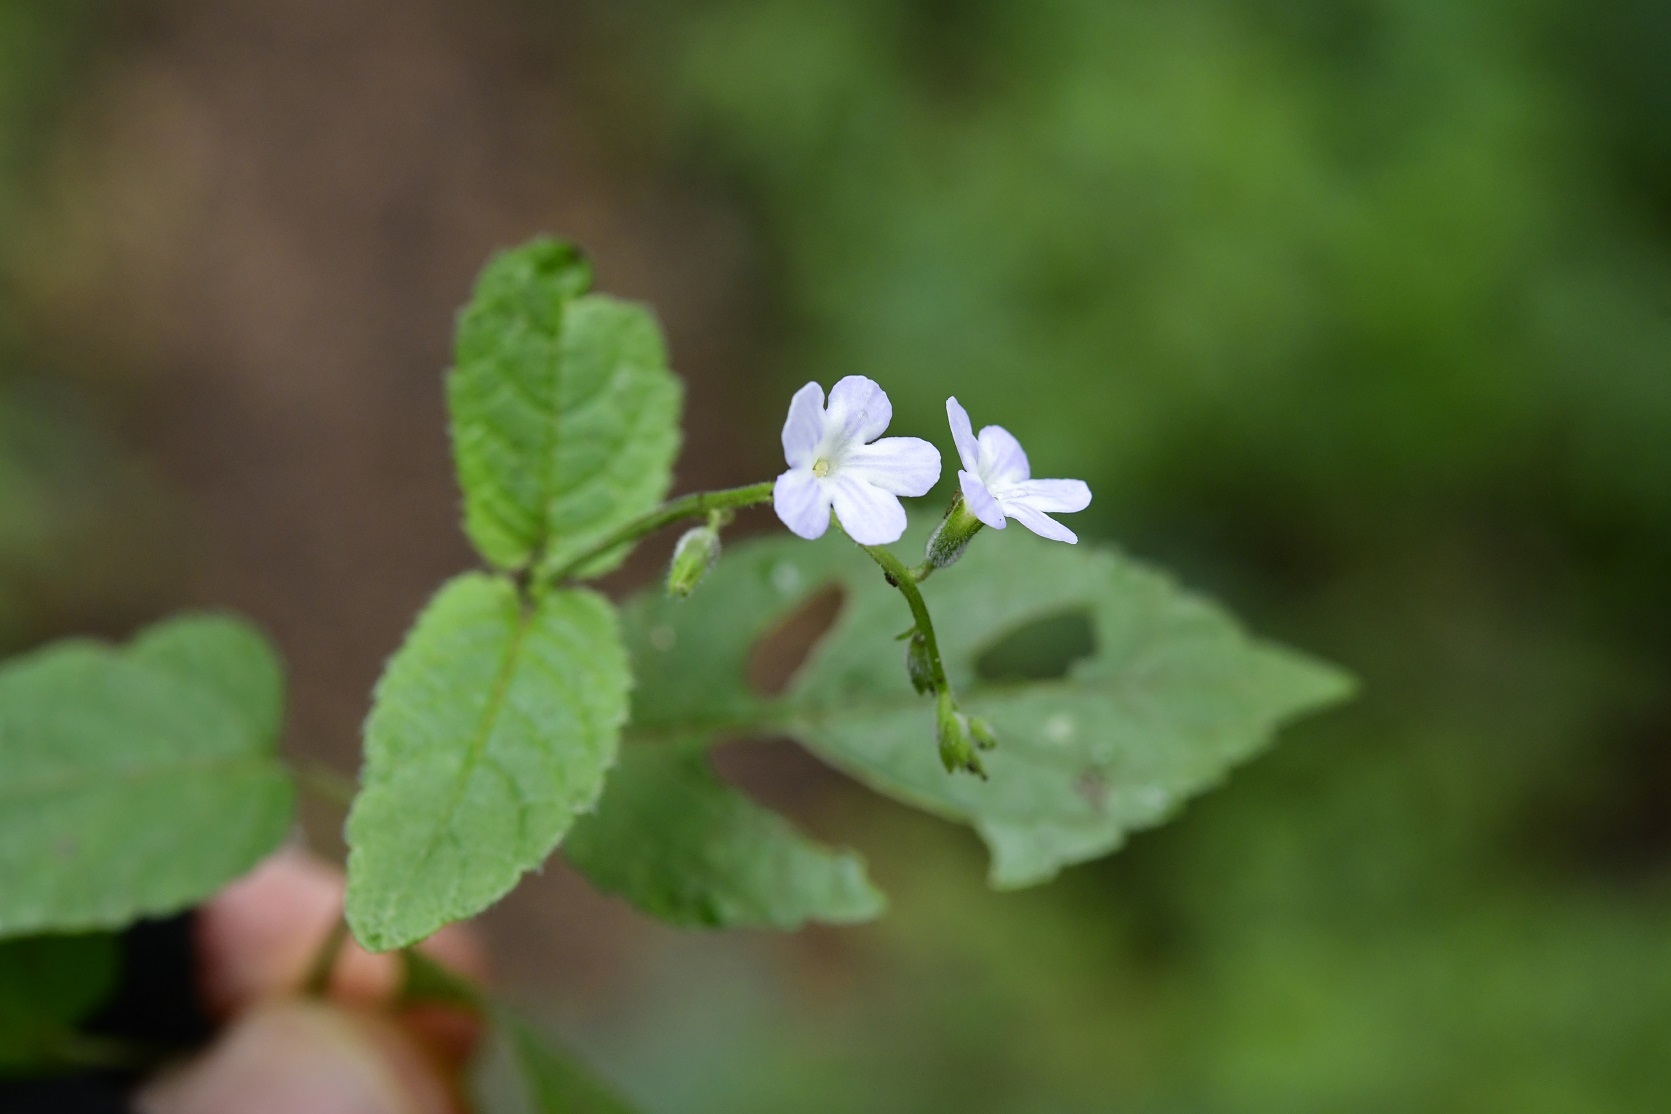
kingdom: Plantae
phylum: Tracheophyta
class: Magnoliopsida
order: Lamiales
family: Verbenaceae
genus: Priva
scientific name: Priva lappulacea
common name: Fasten-'pon-coat
